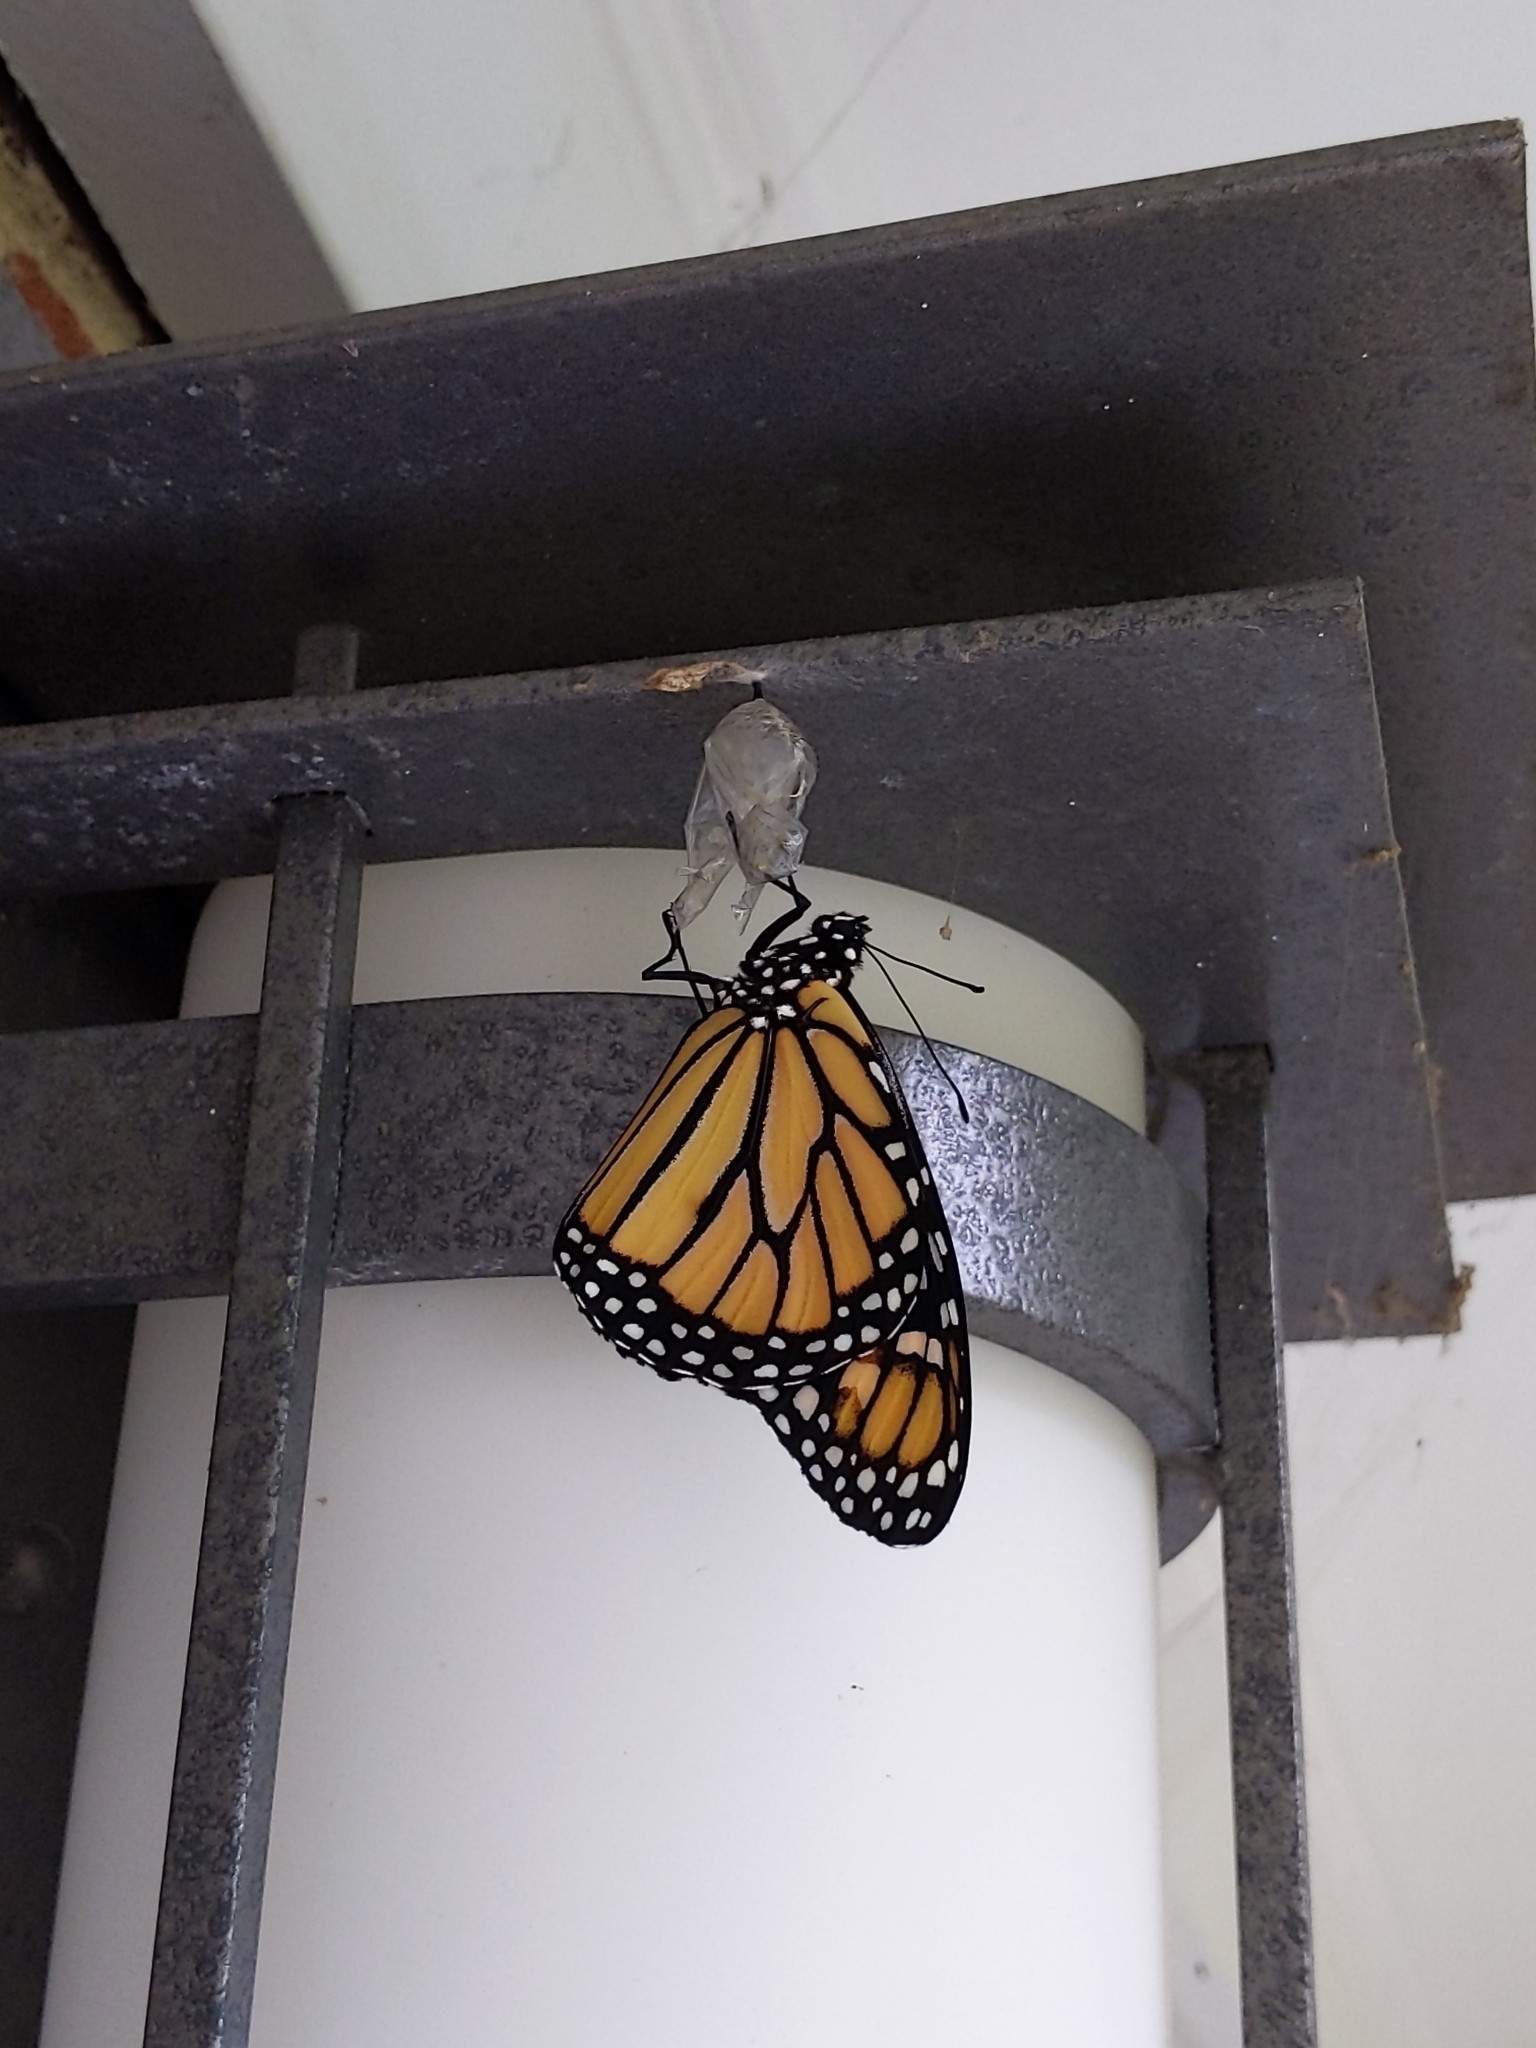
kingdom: Animalia
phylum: Arthropoda
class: Insecta
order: Lepidoptera
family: Nymphalidae
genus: Danaus
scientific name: Danaus plexippus
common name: Monarch
